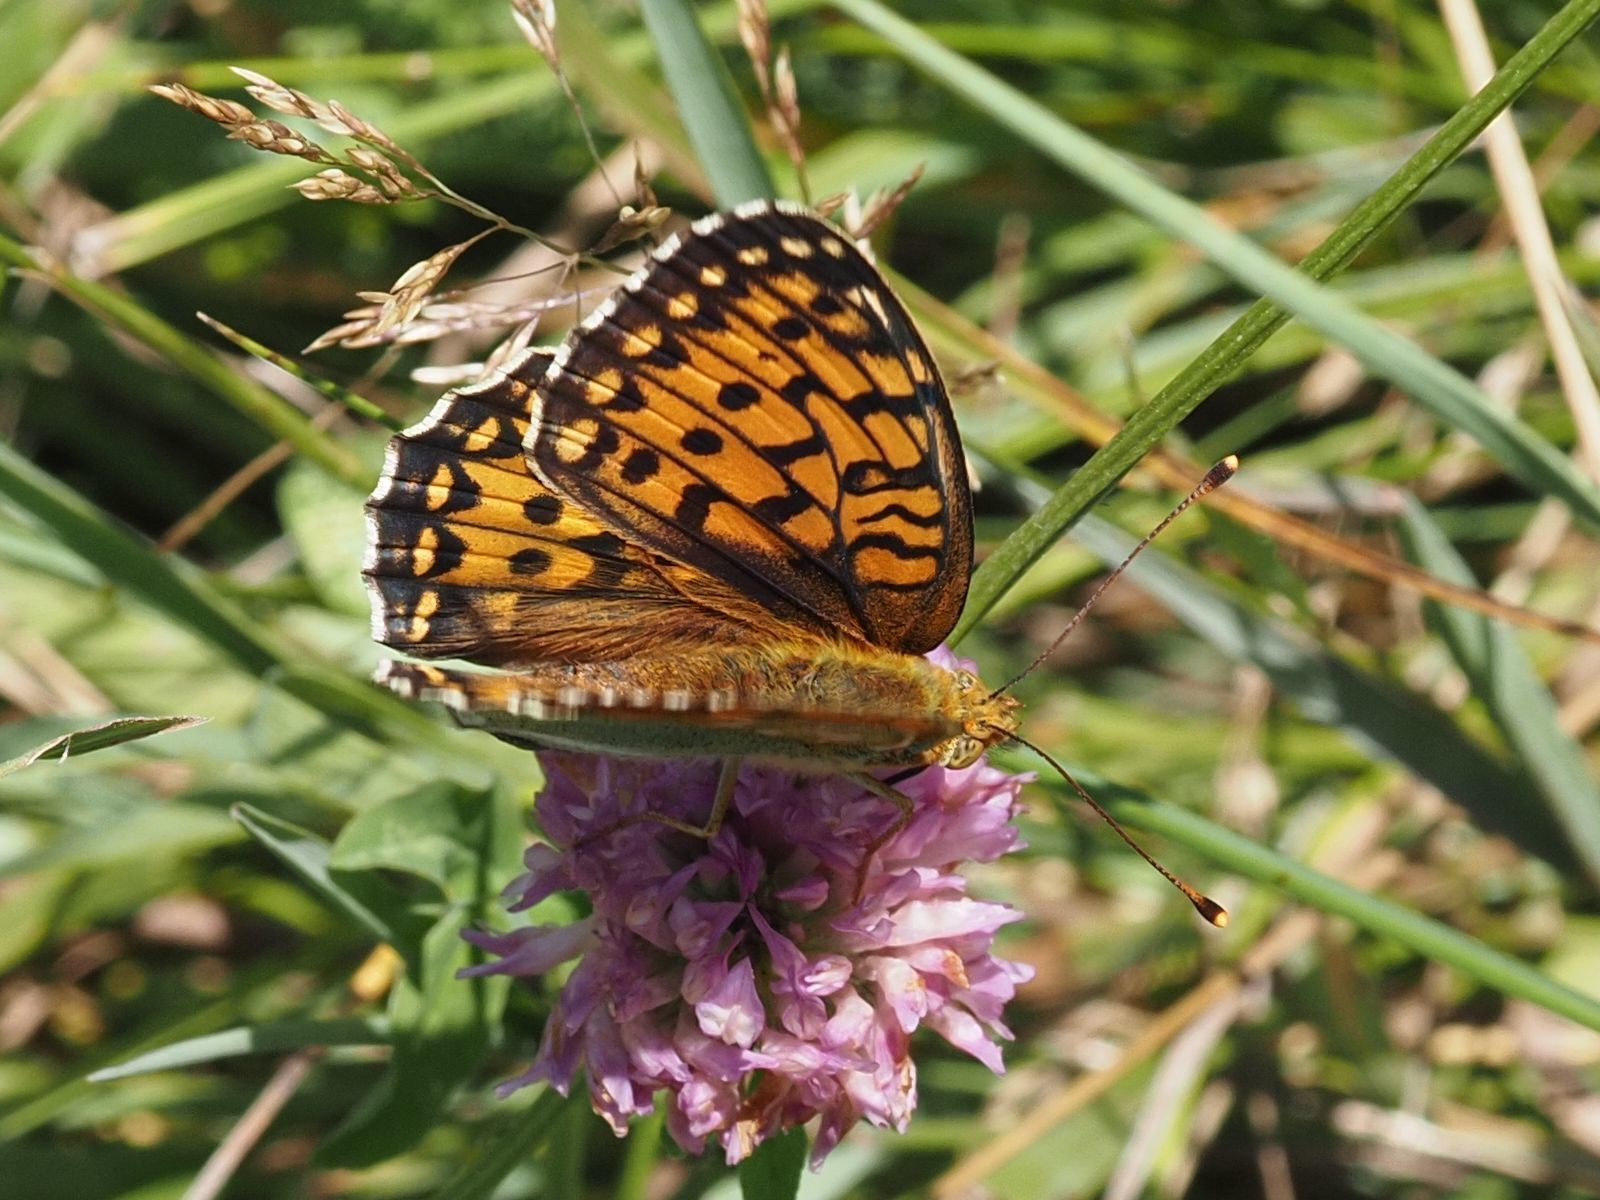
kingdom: Animalia
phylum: Arthropoda
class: Insecta
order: Lepidoptera
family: Nymphalidae
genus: Speyeria
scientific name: Speyeria aglaja
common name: Dark green fritillary
